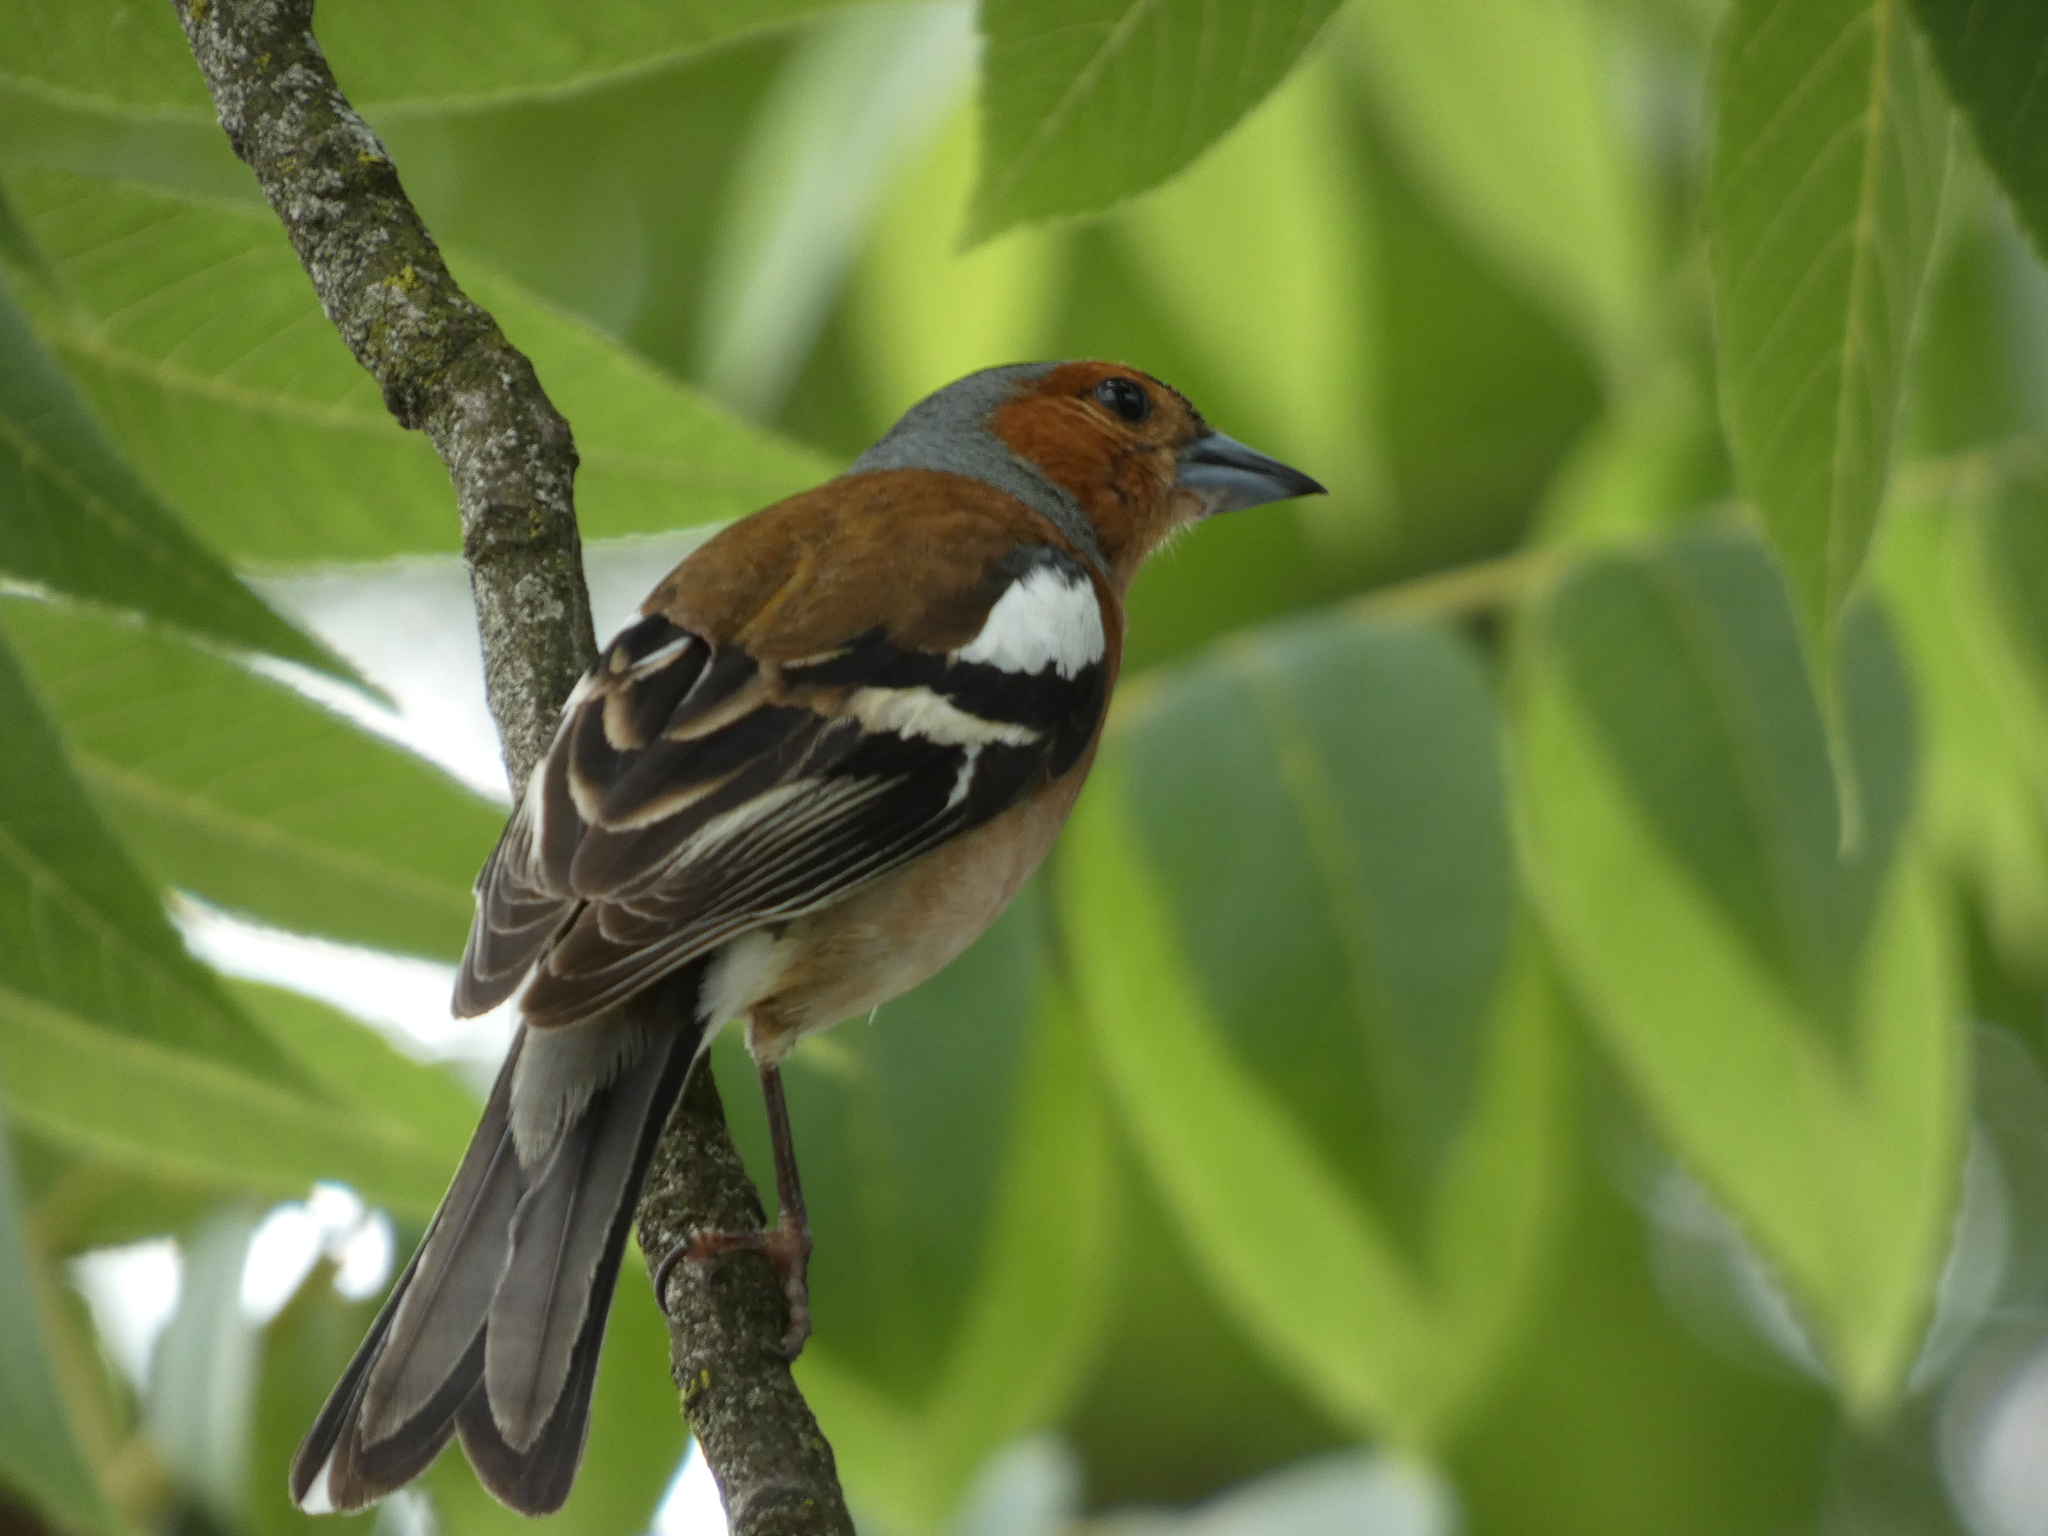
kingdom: Animalia
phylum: Chordata
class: Aves
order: Passeriformes
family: Fringillidae
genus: Fringilla
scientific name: Fringilla coelebs
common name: Common chaffinch
